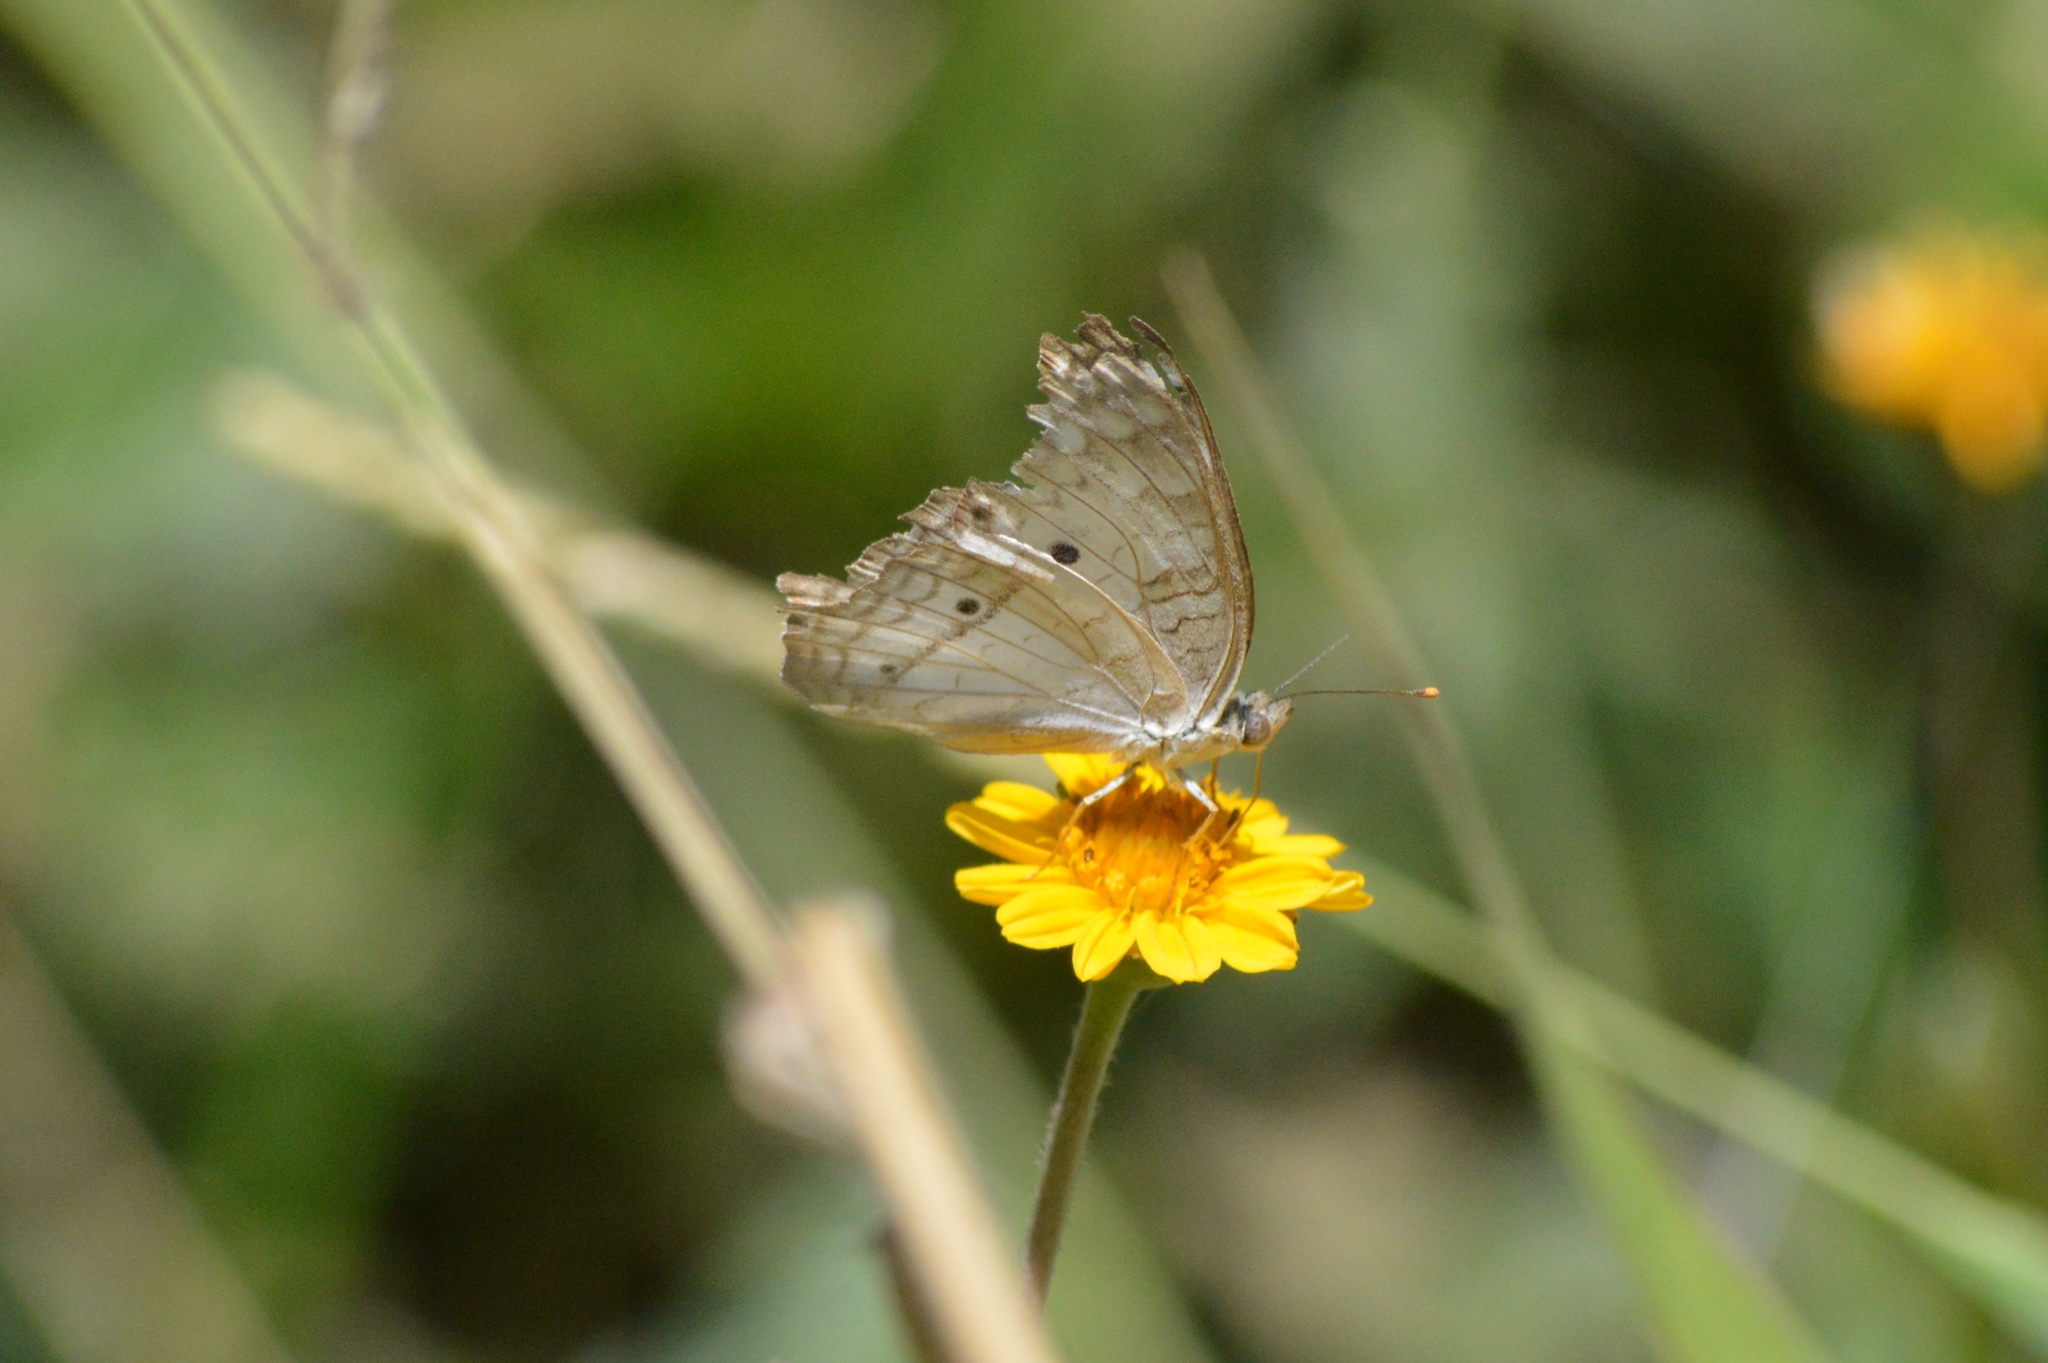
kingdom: Animalia
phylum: Arthropoda
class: Insecta
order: Lepidoptera
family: Nymphalidae
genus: Anartia
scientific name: Anartia jatrophae
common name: White peacock
